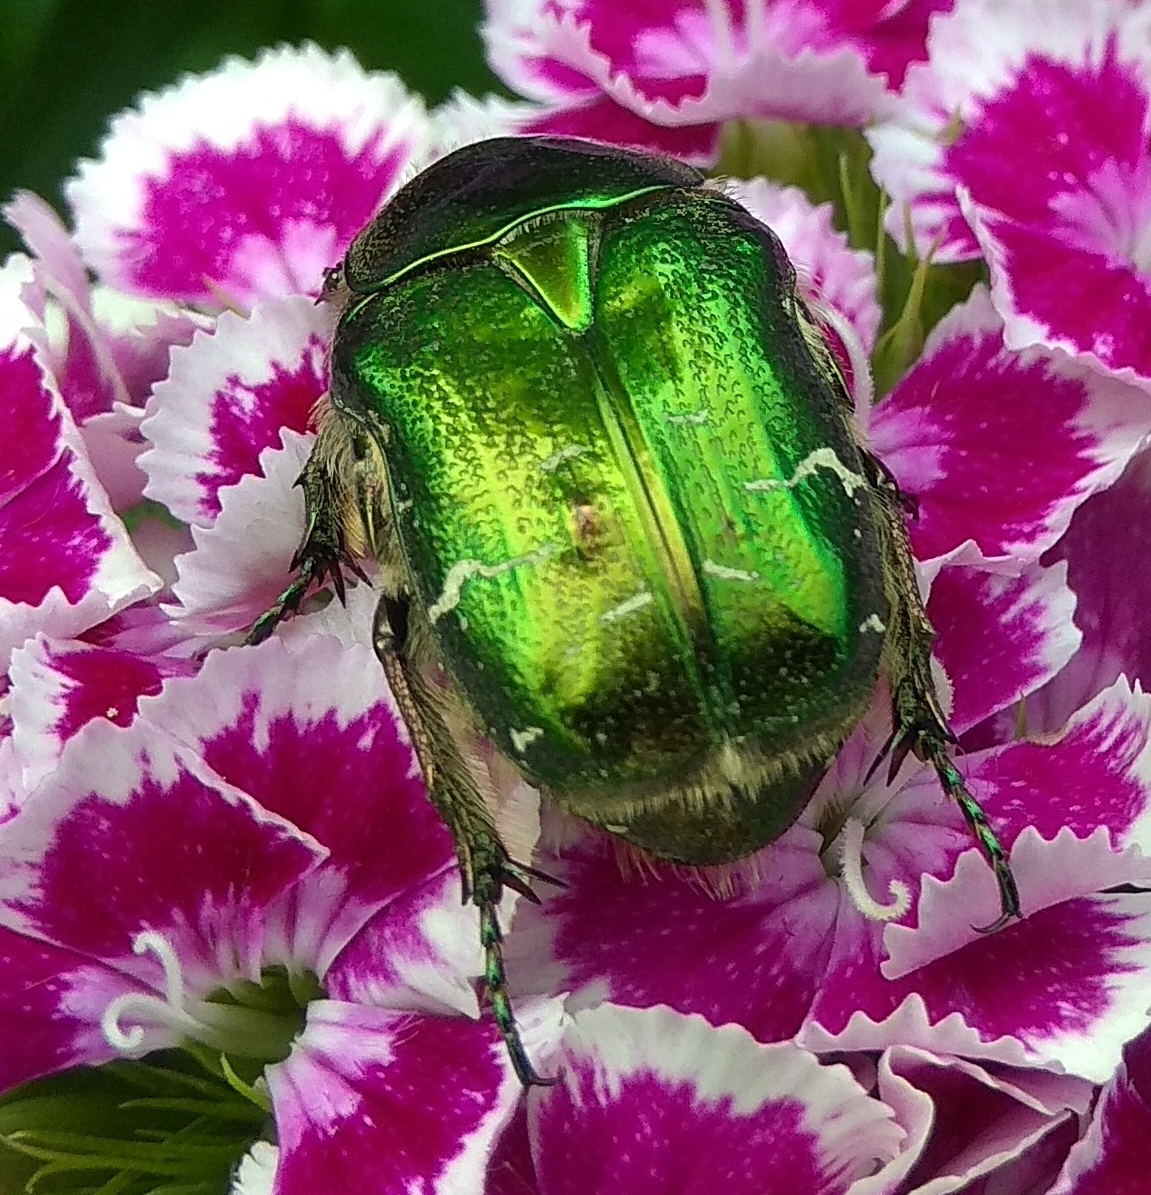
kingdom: Animalia
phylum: Arthropoda
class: Insecta
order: Coleoptera
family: Scarabaeidae
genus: Cetonia
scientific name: Cetonia aurata
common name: Rose chafer
